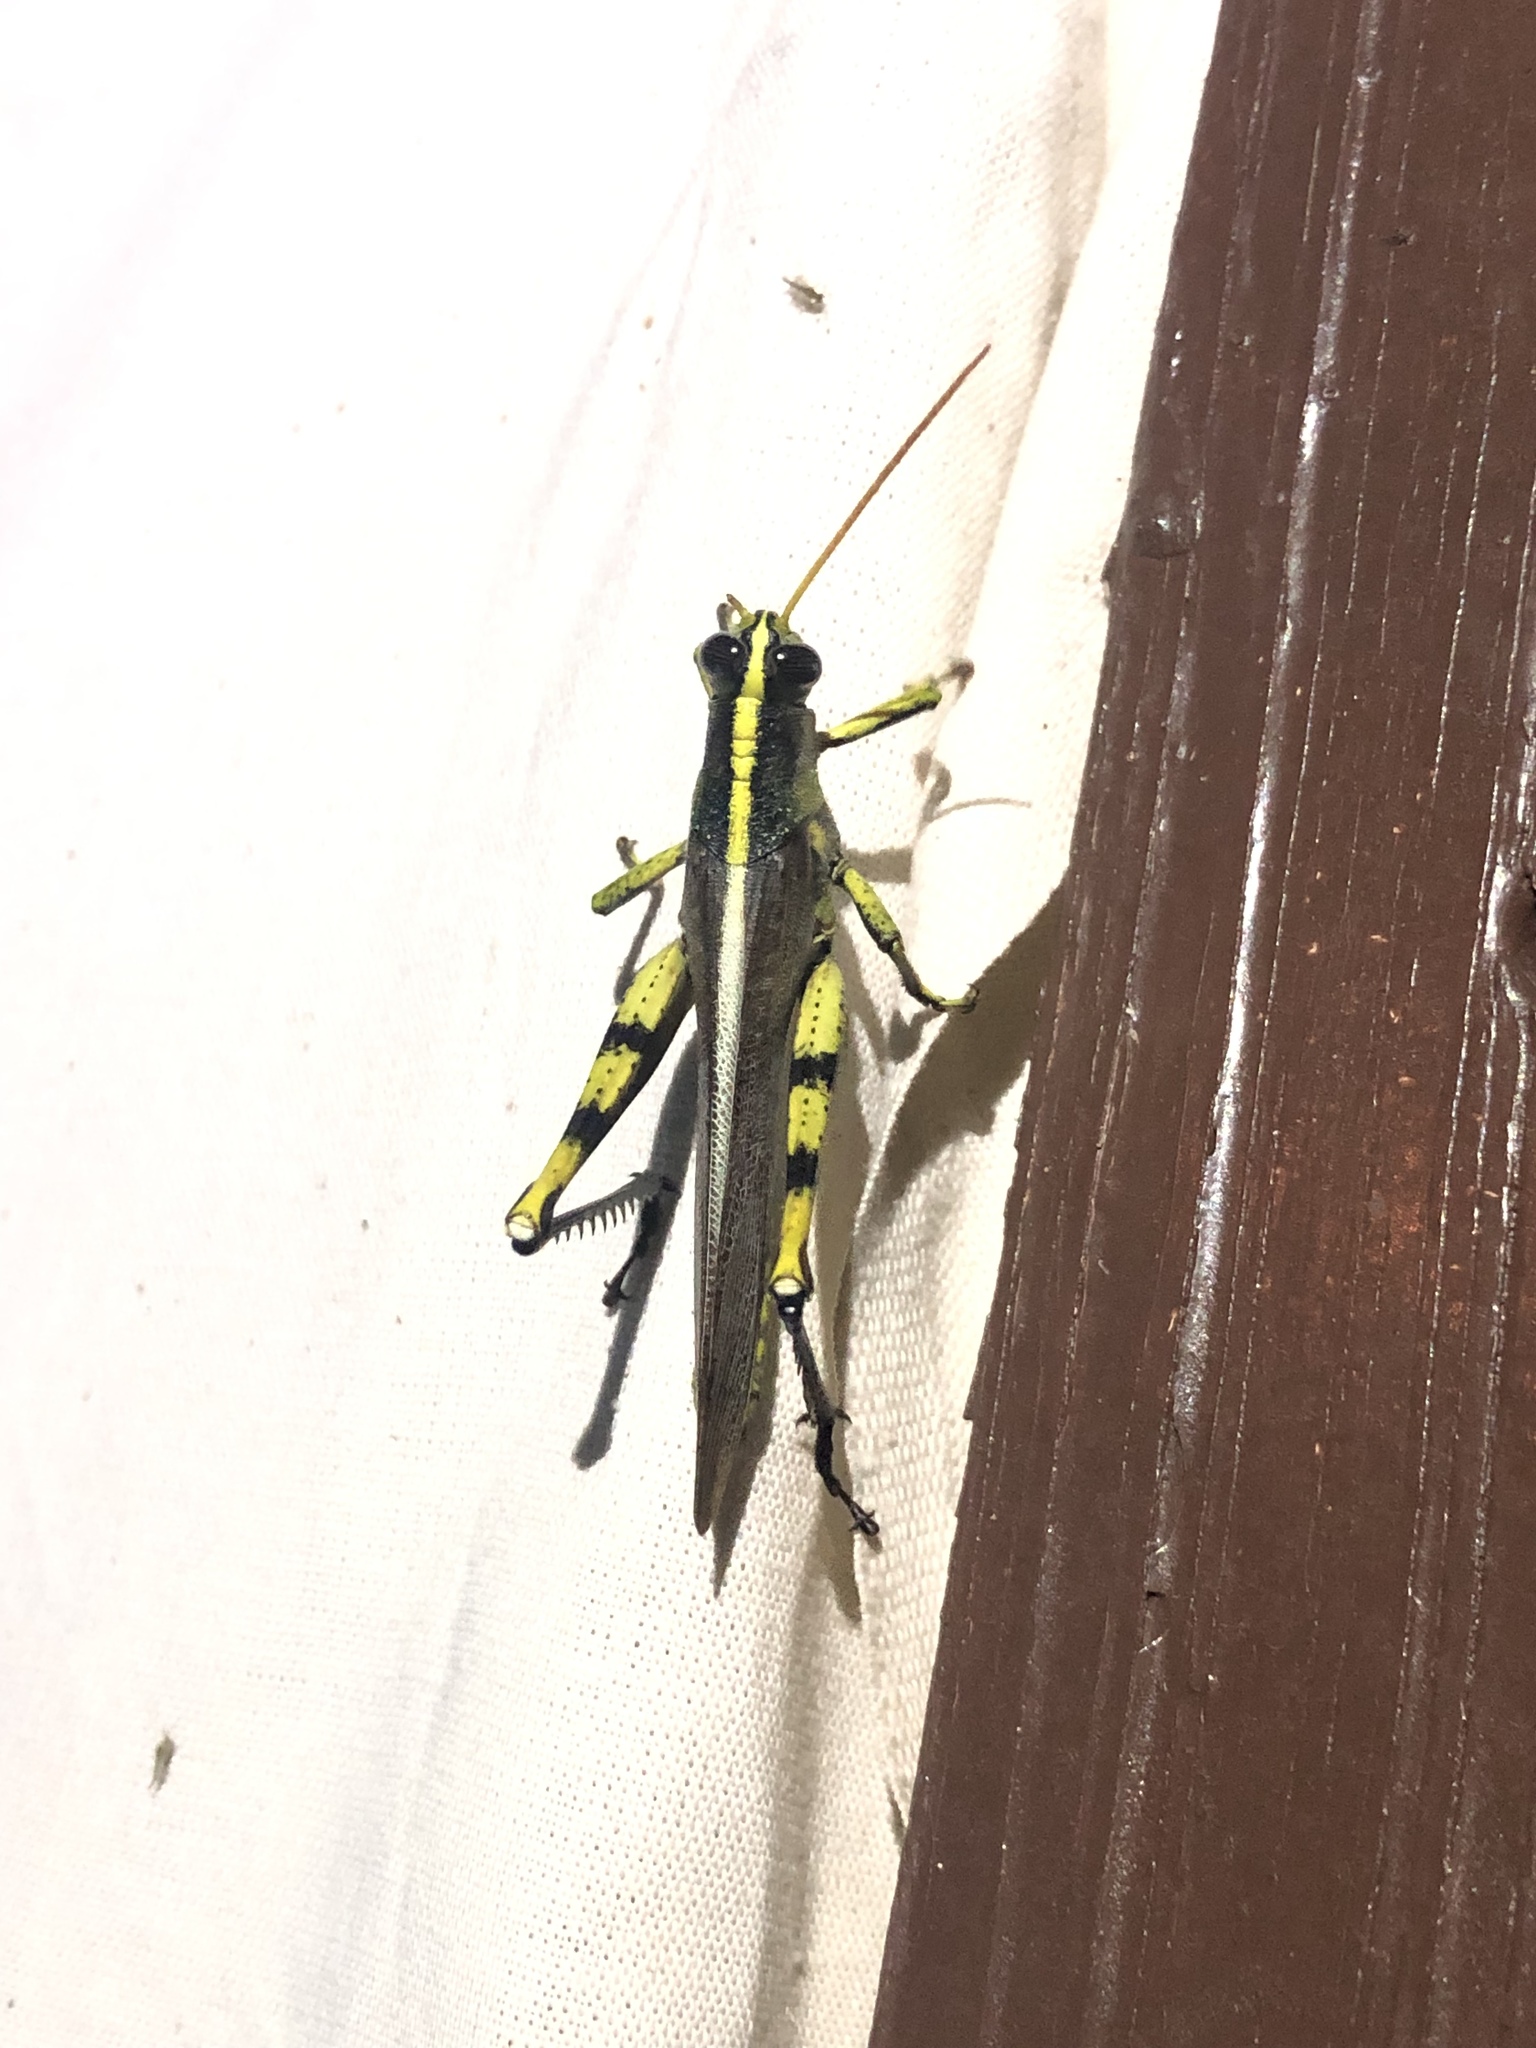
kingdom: Animalia
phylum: Arthropoda
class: Insecta
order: Orthoptera
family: Acrididae
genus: Schistocerca
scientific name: Schistocerca obscura
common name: Obscure bird grasshopper
